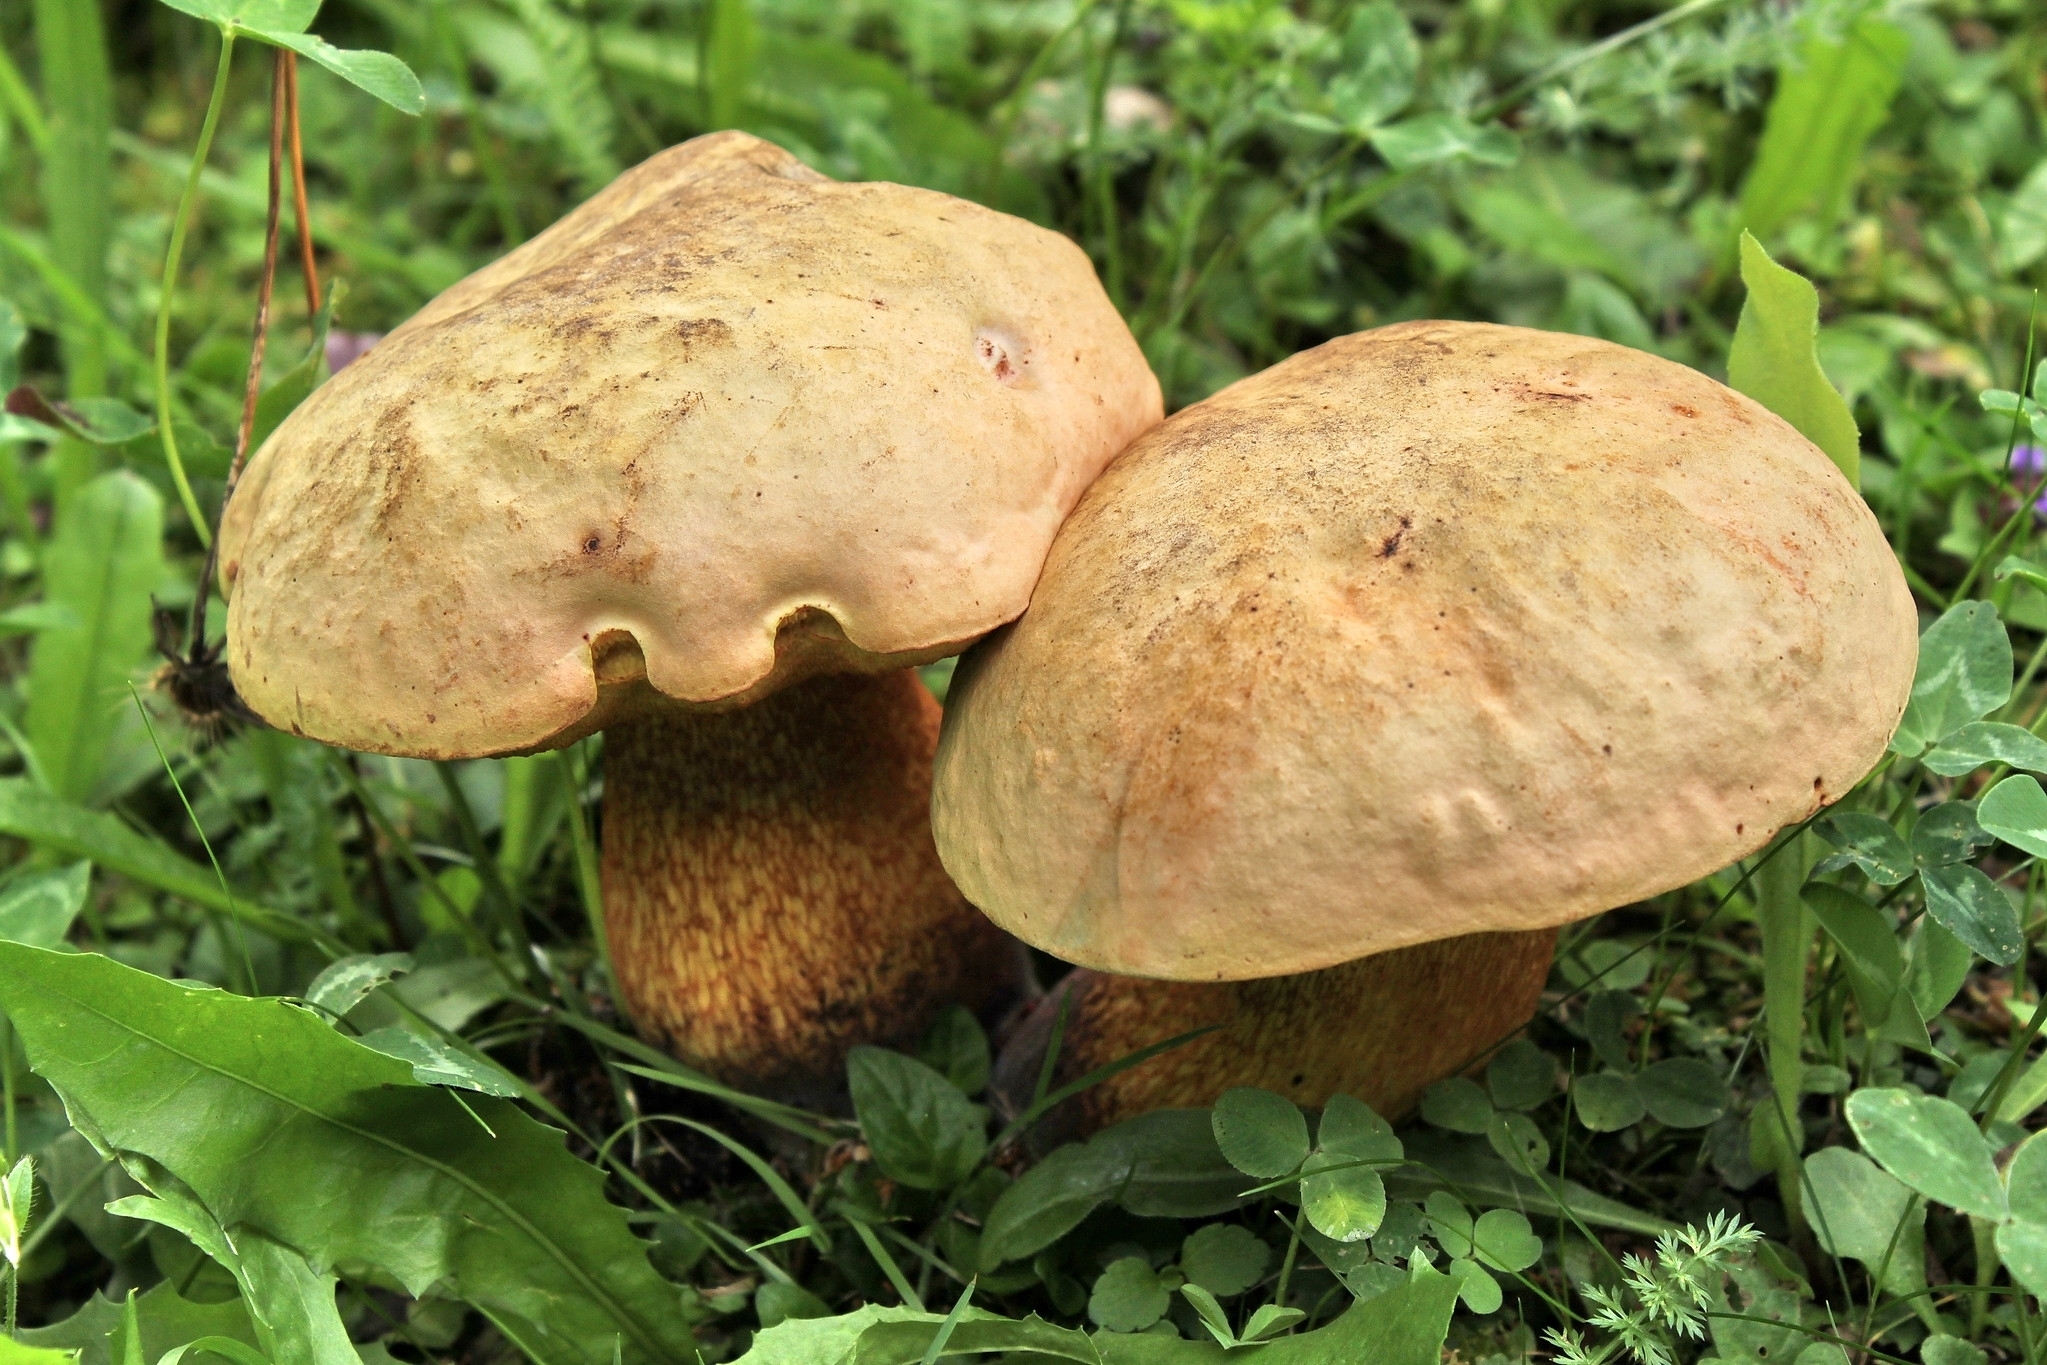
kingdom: Fungi
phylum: Basidiomycota
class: Agaricomycetes
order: Boletales
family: Boletaceae
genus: Suillellus
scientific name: Suillellus luridus
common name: Lurid bolete
